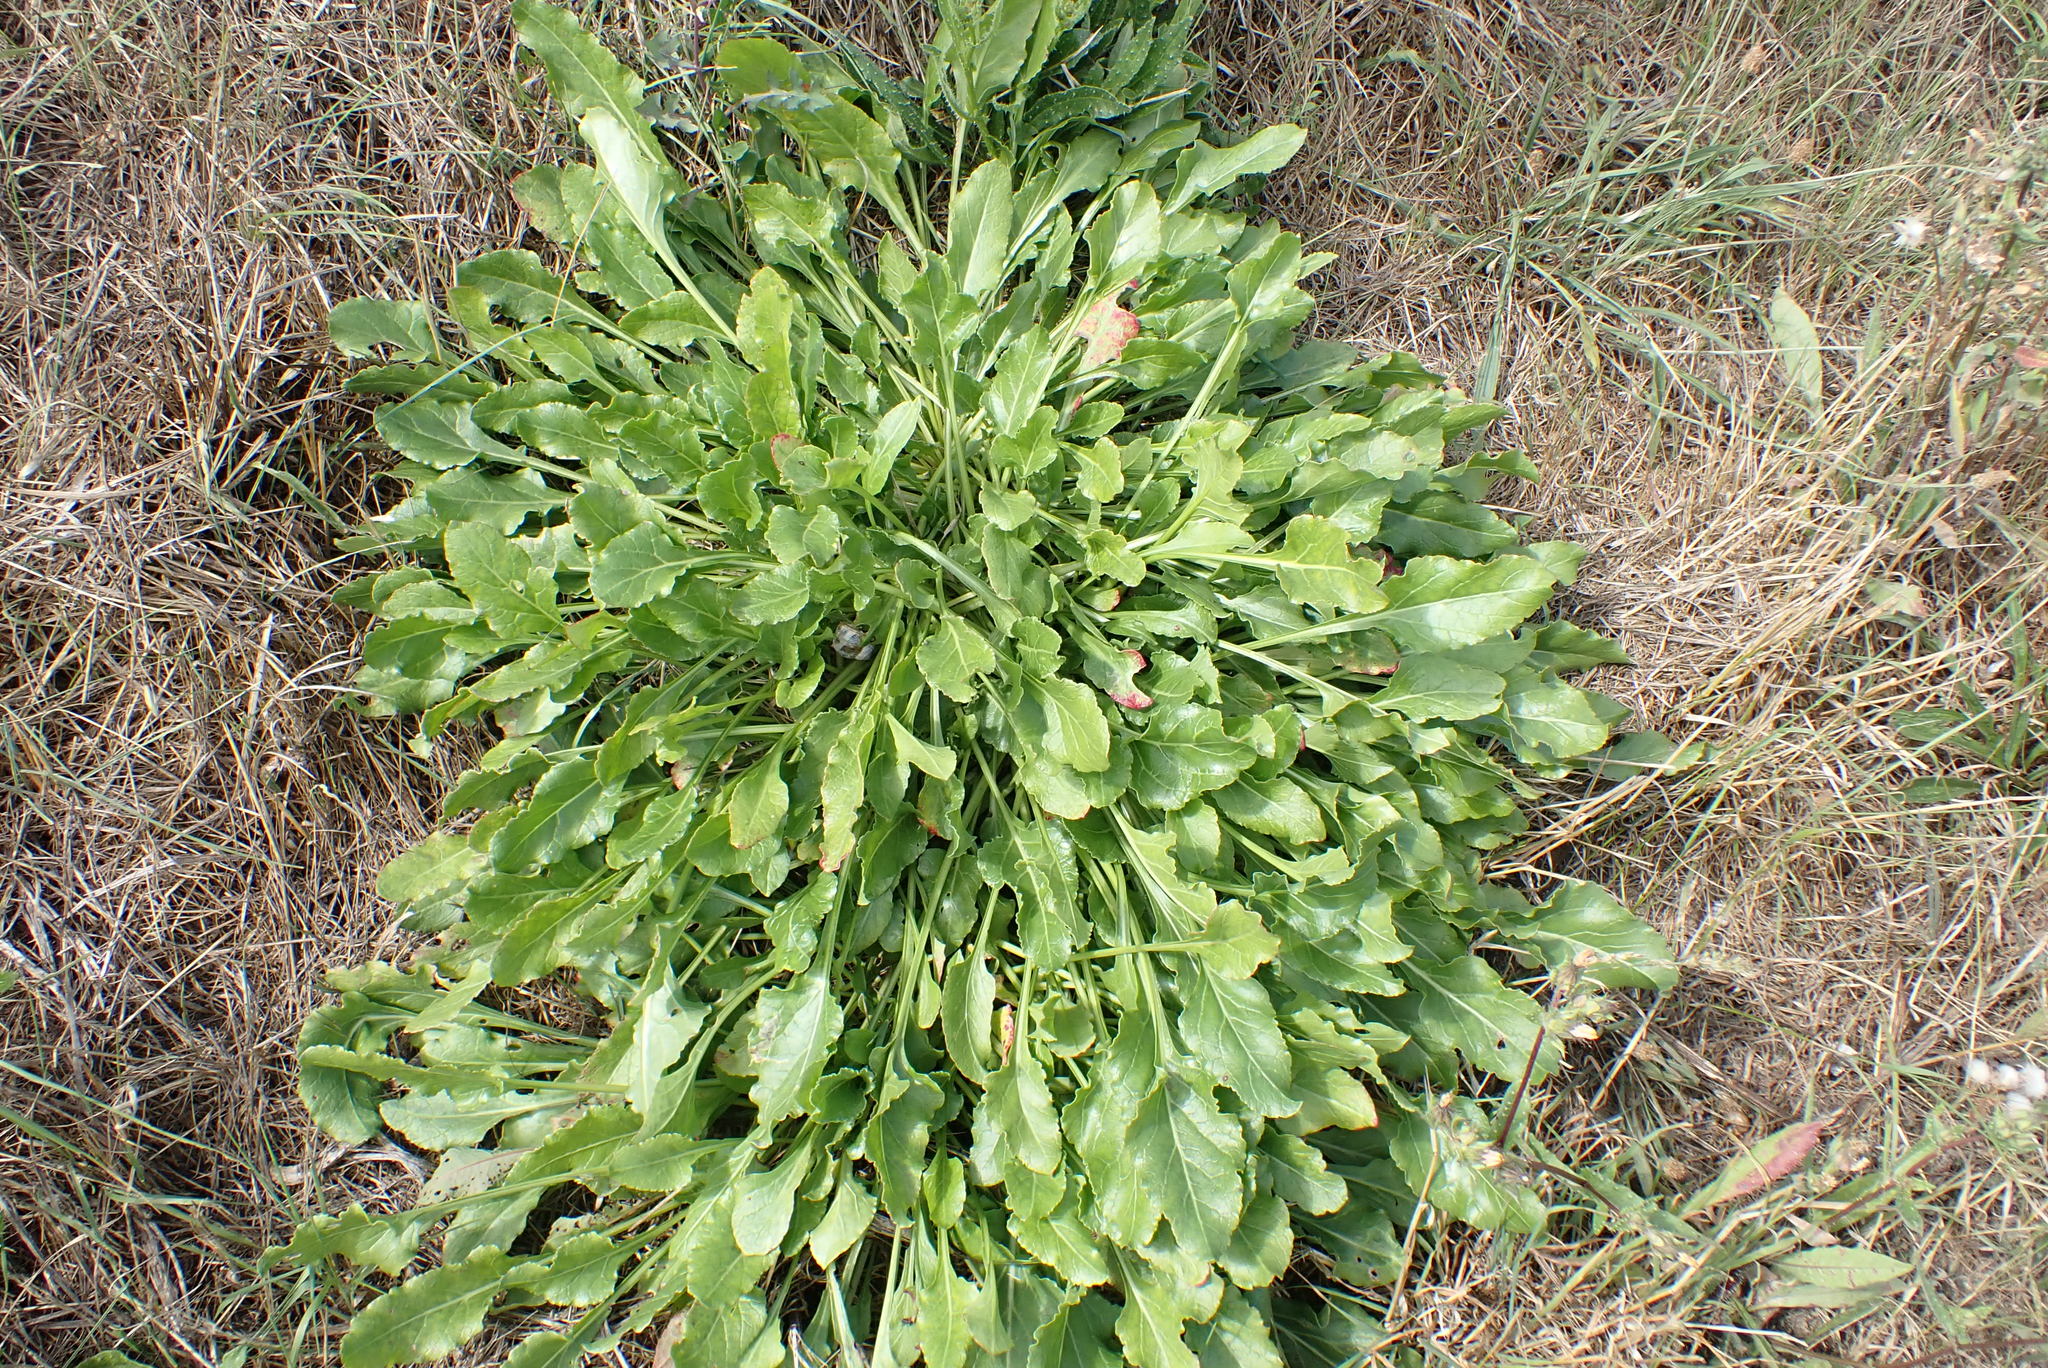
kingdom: Plantae
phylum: Tracheophyta
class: Magnoliopsida
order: Caryophyllales
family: Amaranthaceae
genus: Beta
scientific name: Beta vulgaris
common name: Beet
